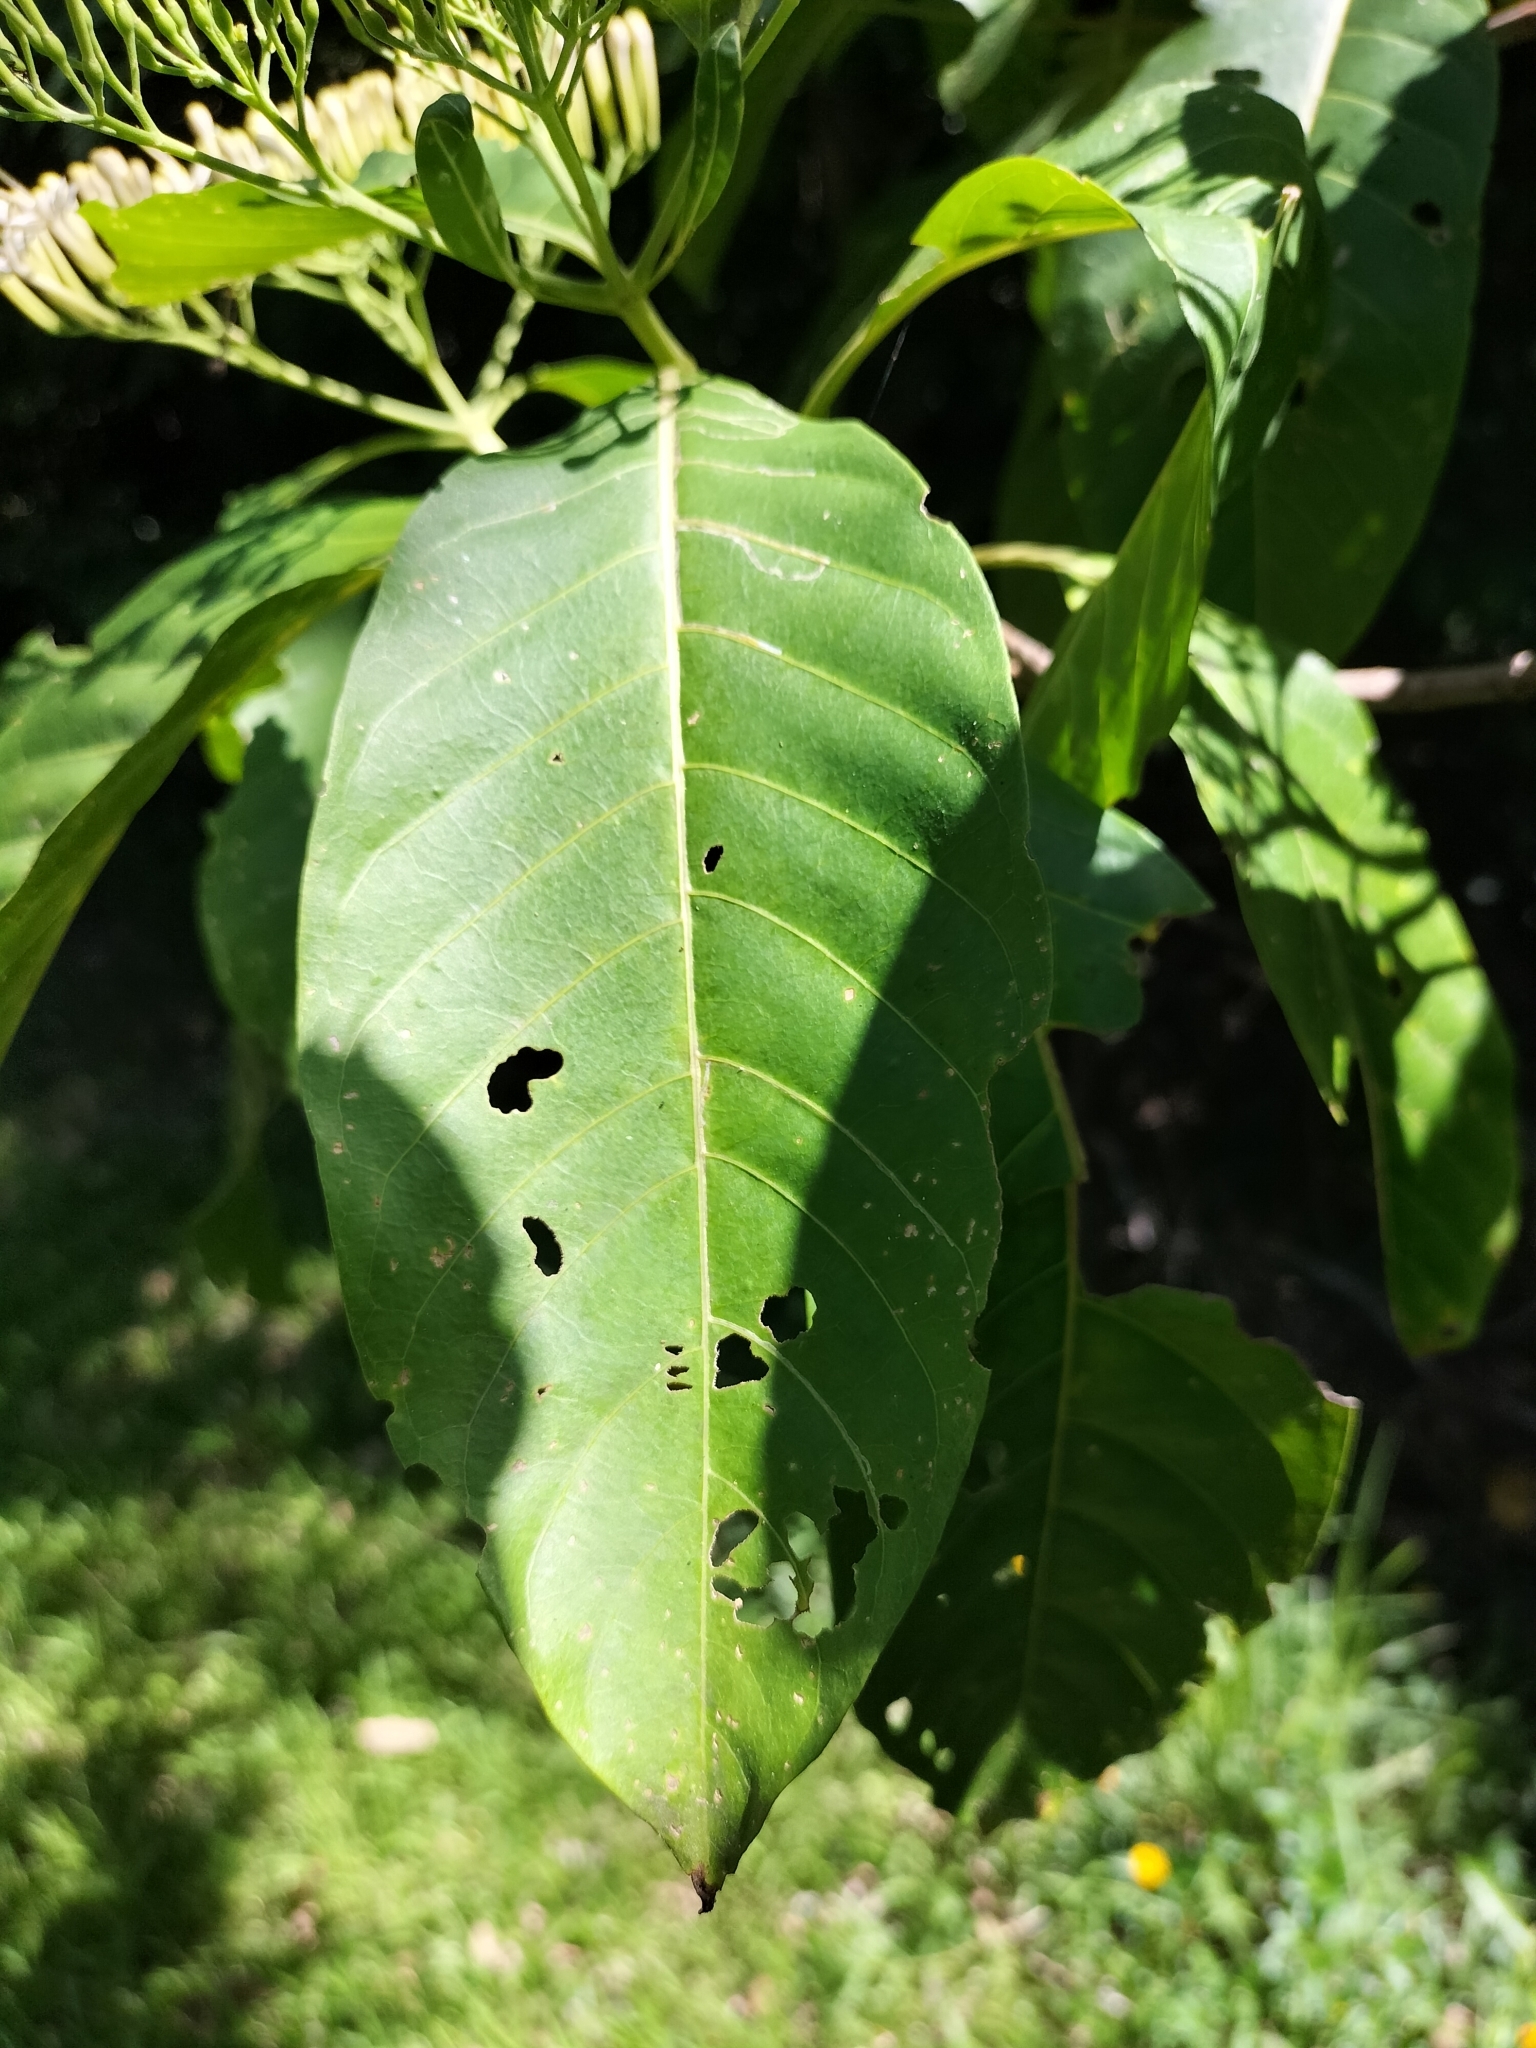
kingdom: Plantae
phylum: Tracheophyta
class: Magnoliopsida
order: Gentianales
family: Rubiaceae
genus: Tarenna
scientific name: Tarenna dallachiana
